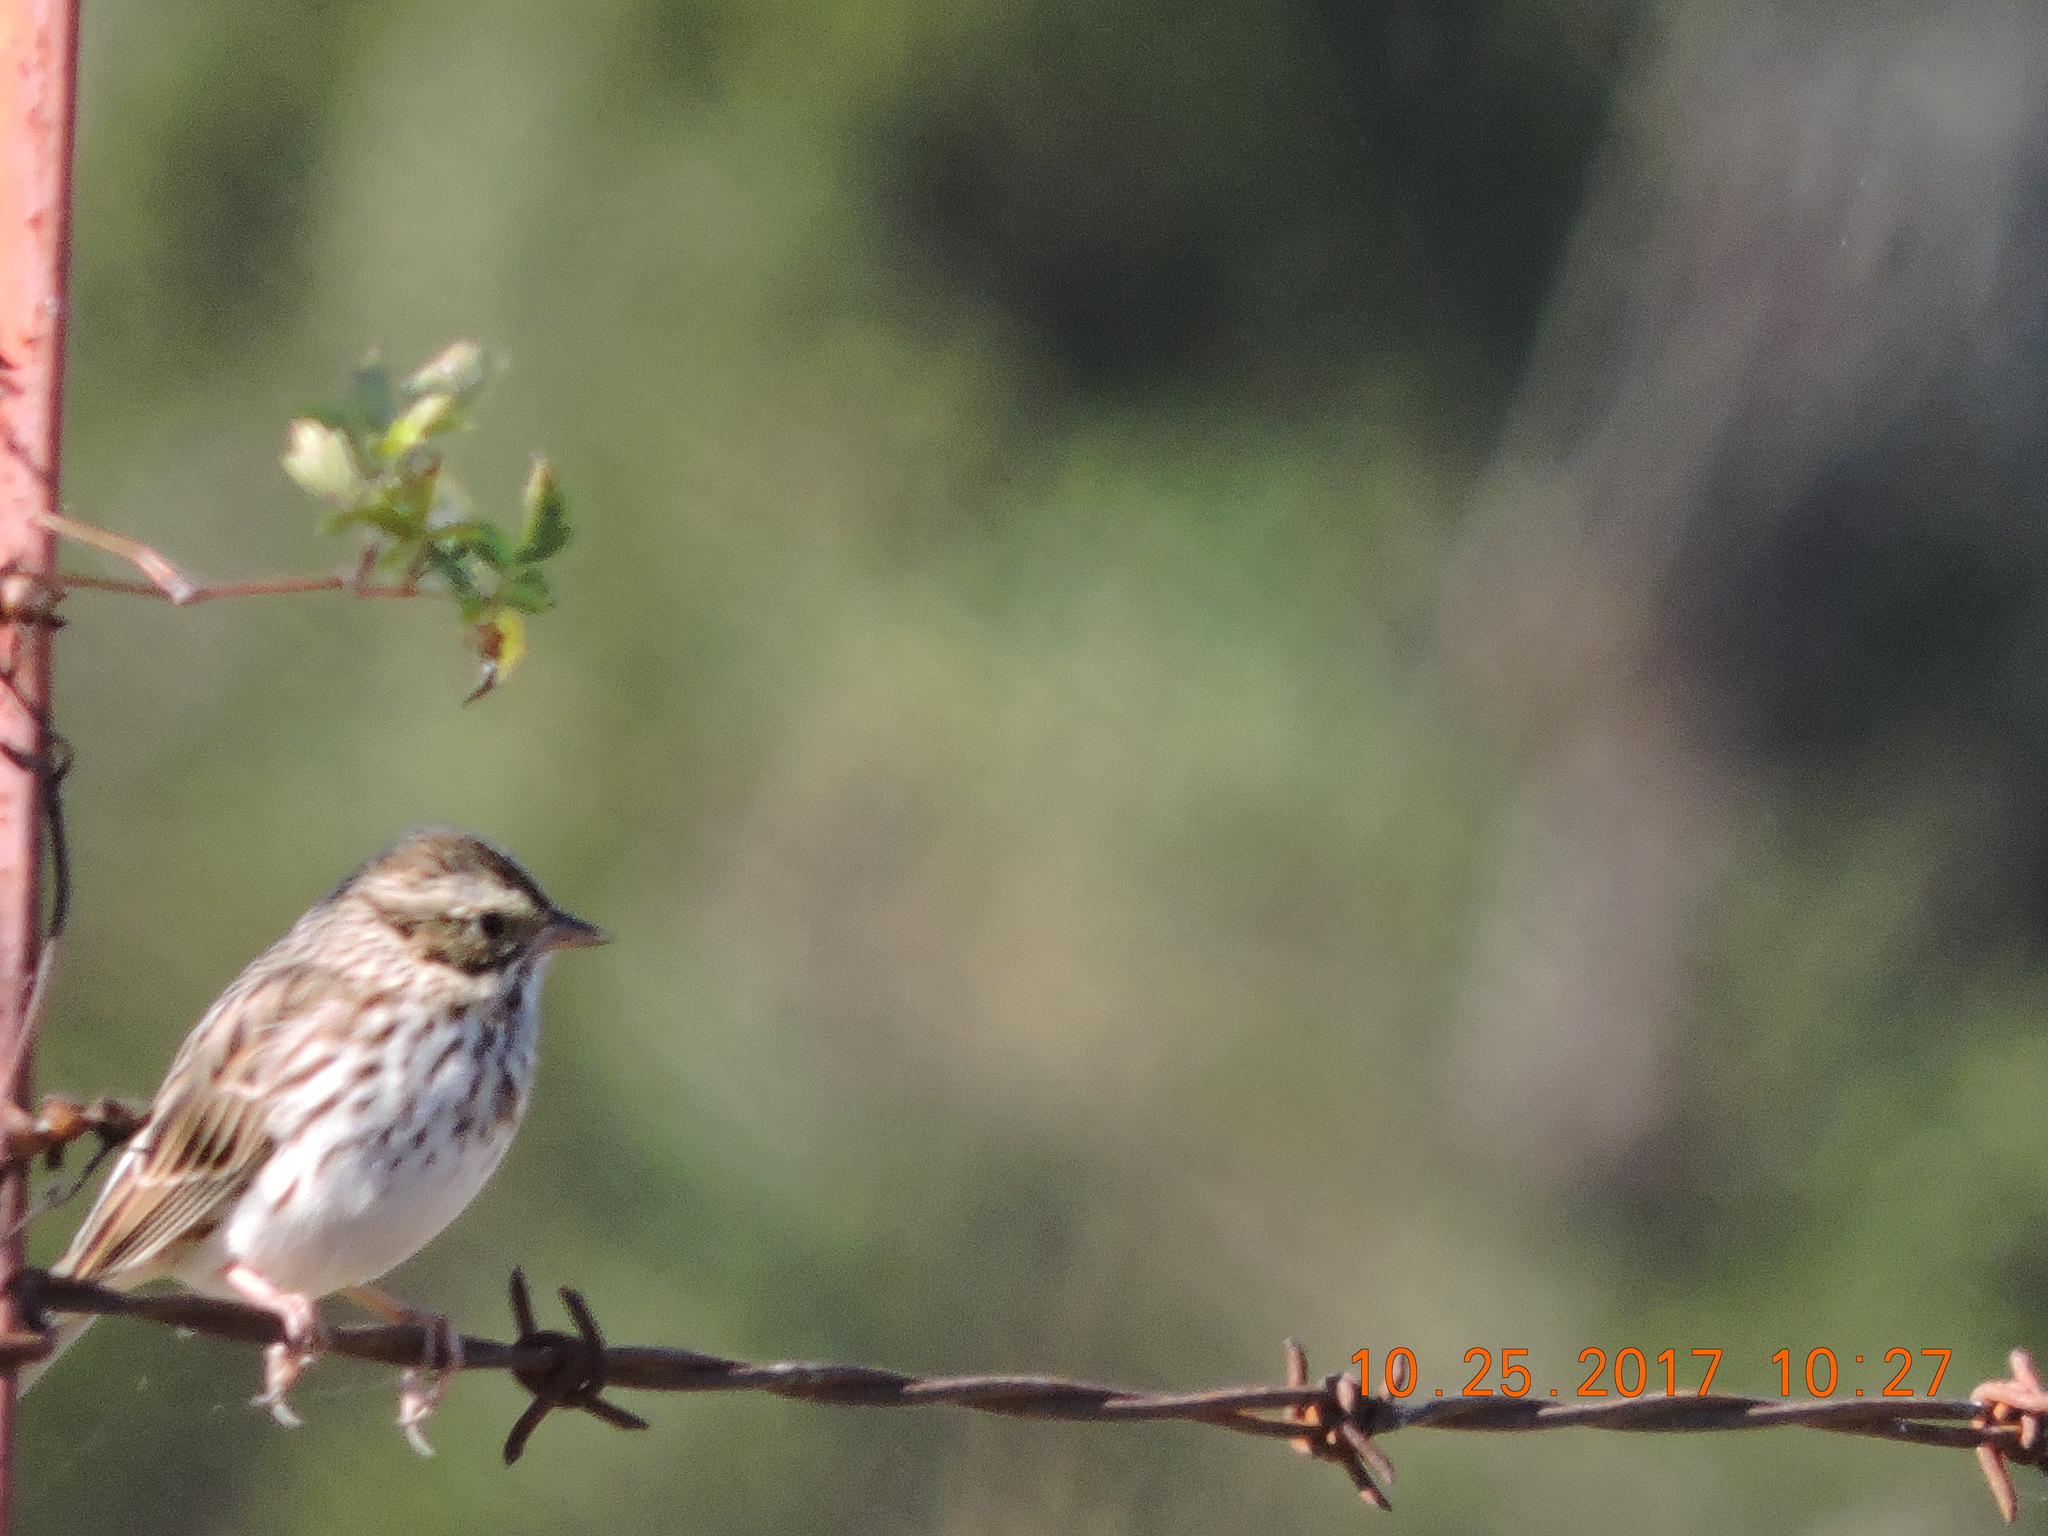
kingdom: Animalia
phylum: Chordata
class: Aves
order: Passeriformes
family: Passerellidae
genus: Passerculus
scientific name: Passerculus sandwichensis
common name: Savannah sparrow
